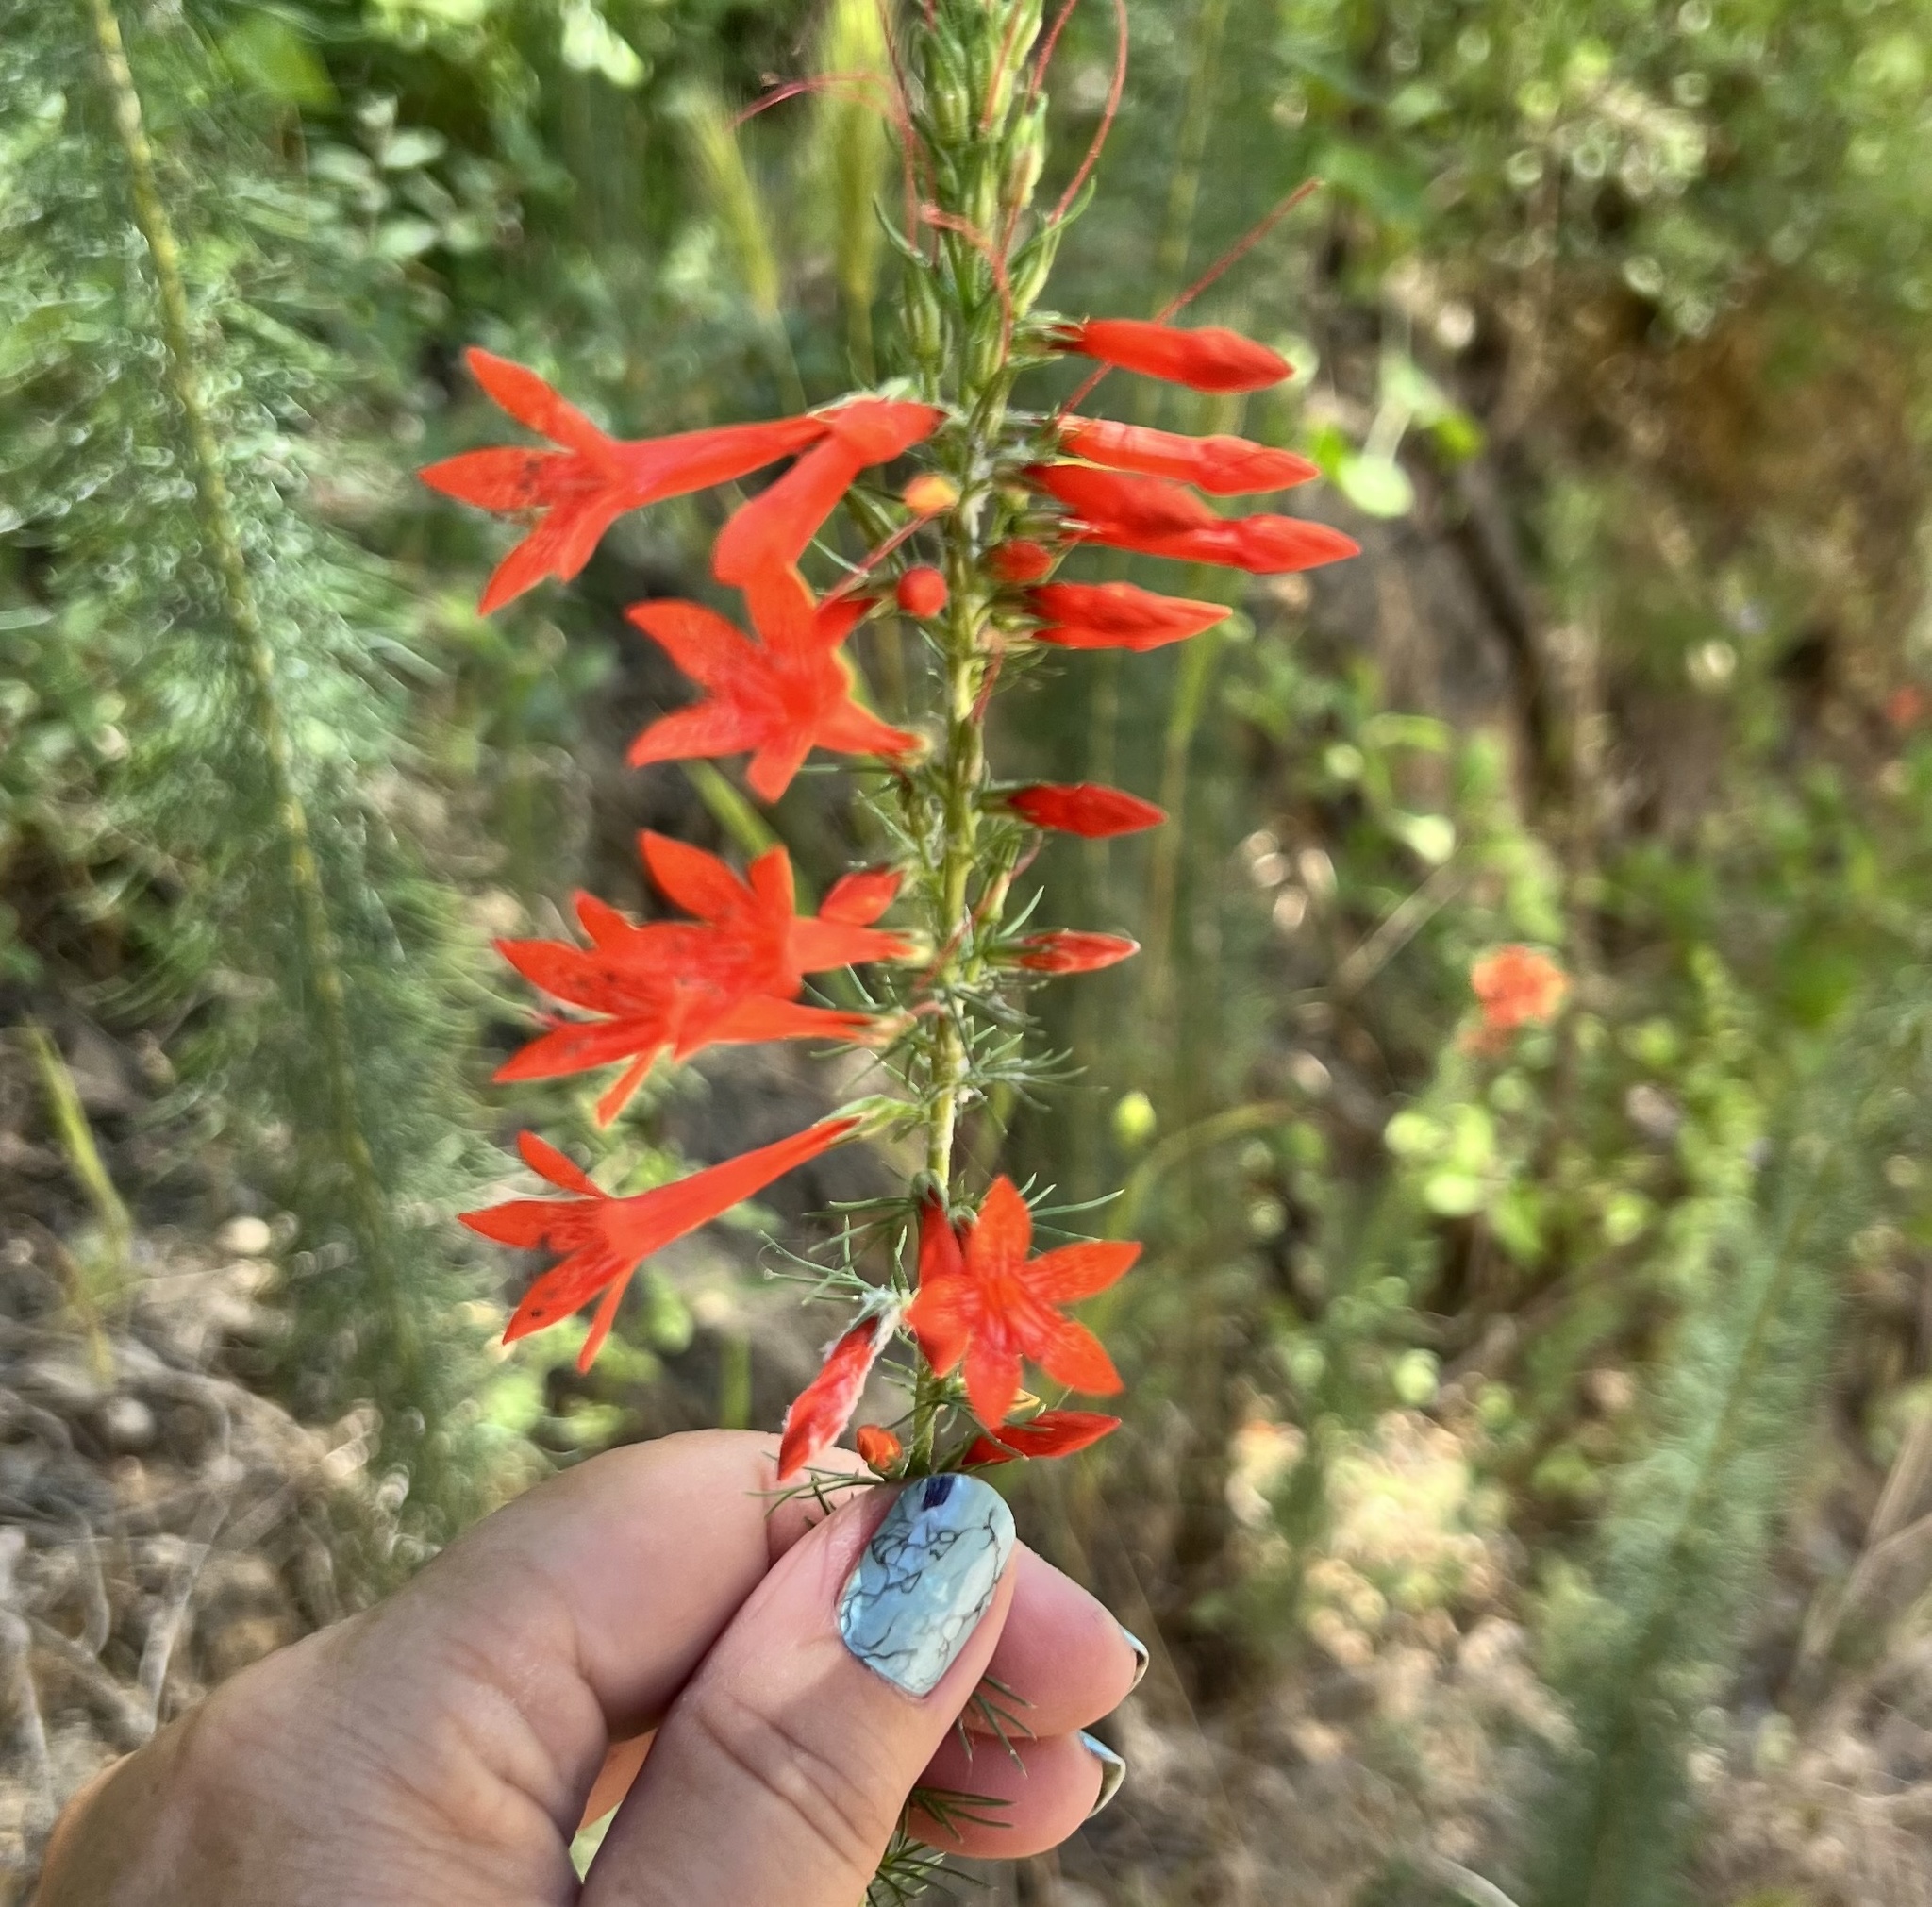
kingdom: Plantae
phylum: Tracheophyta
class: Magnoliopsida
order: Ericales
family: Polemoniaceae
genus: Ipomopsis
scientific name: Ipomopsis rubra
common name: Skyrocket
